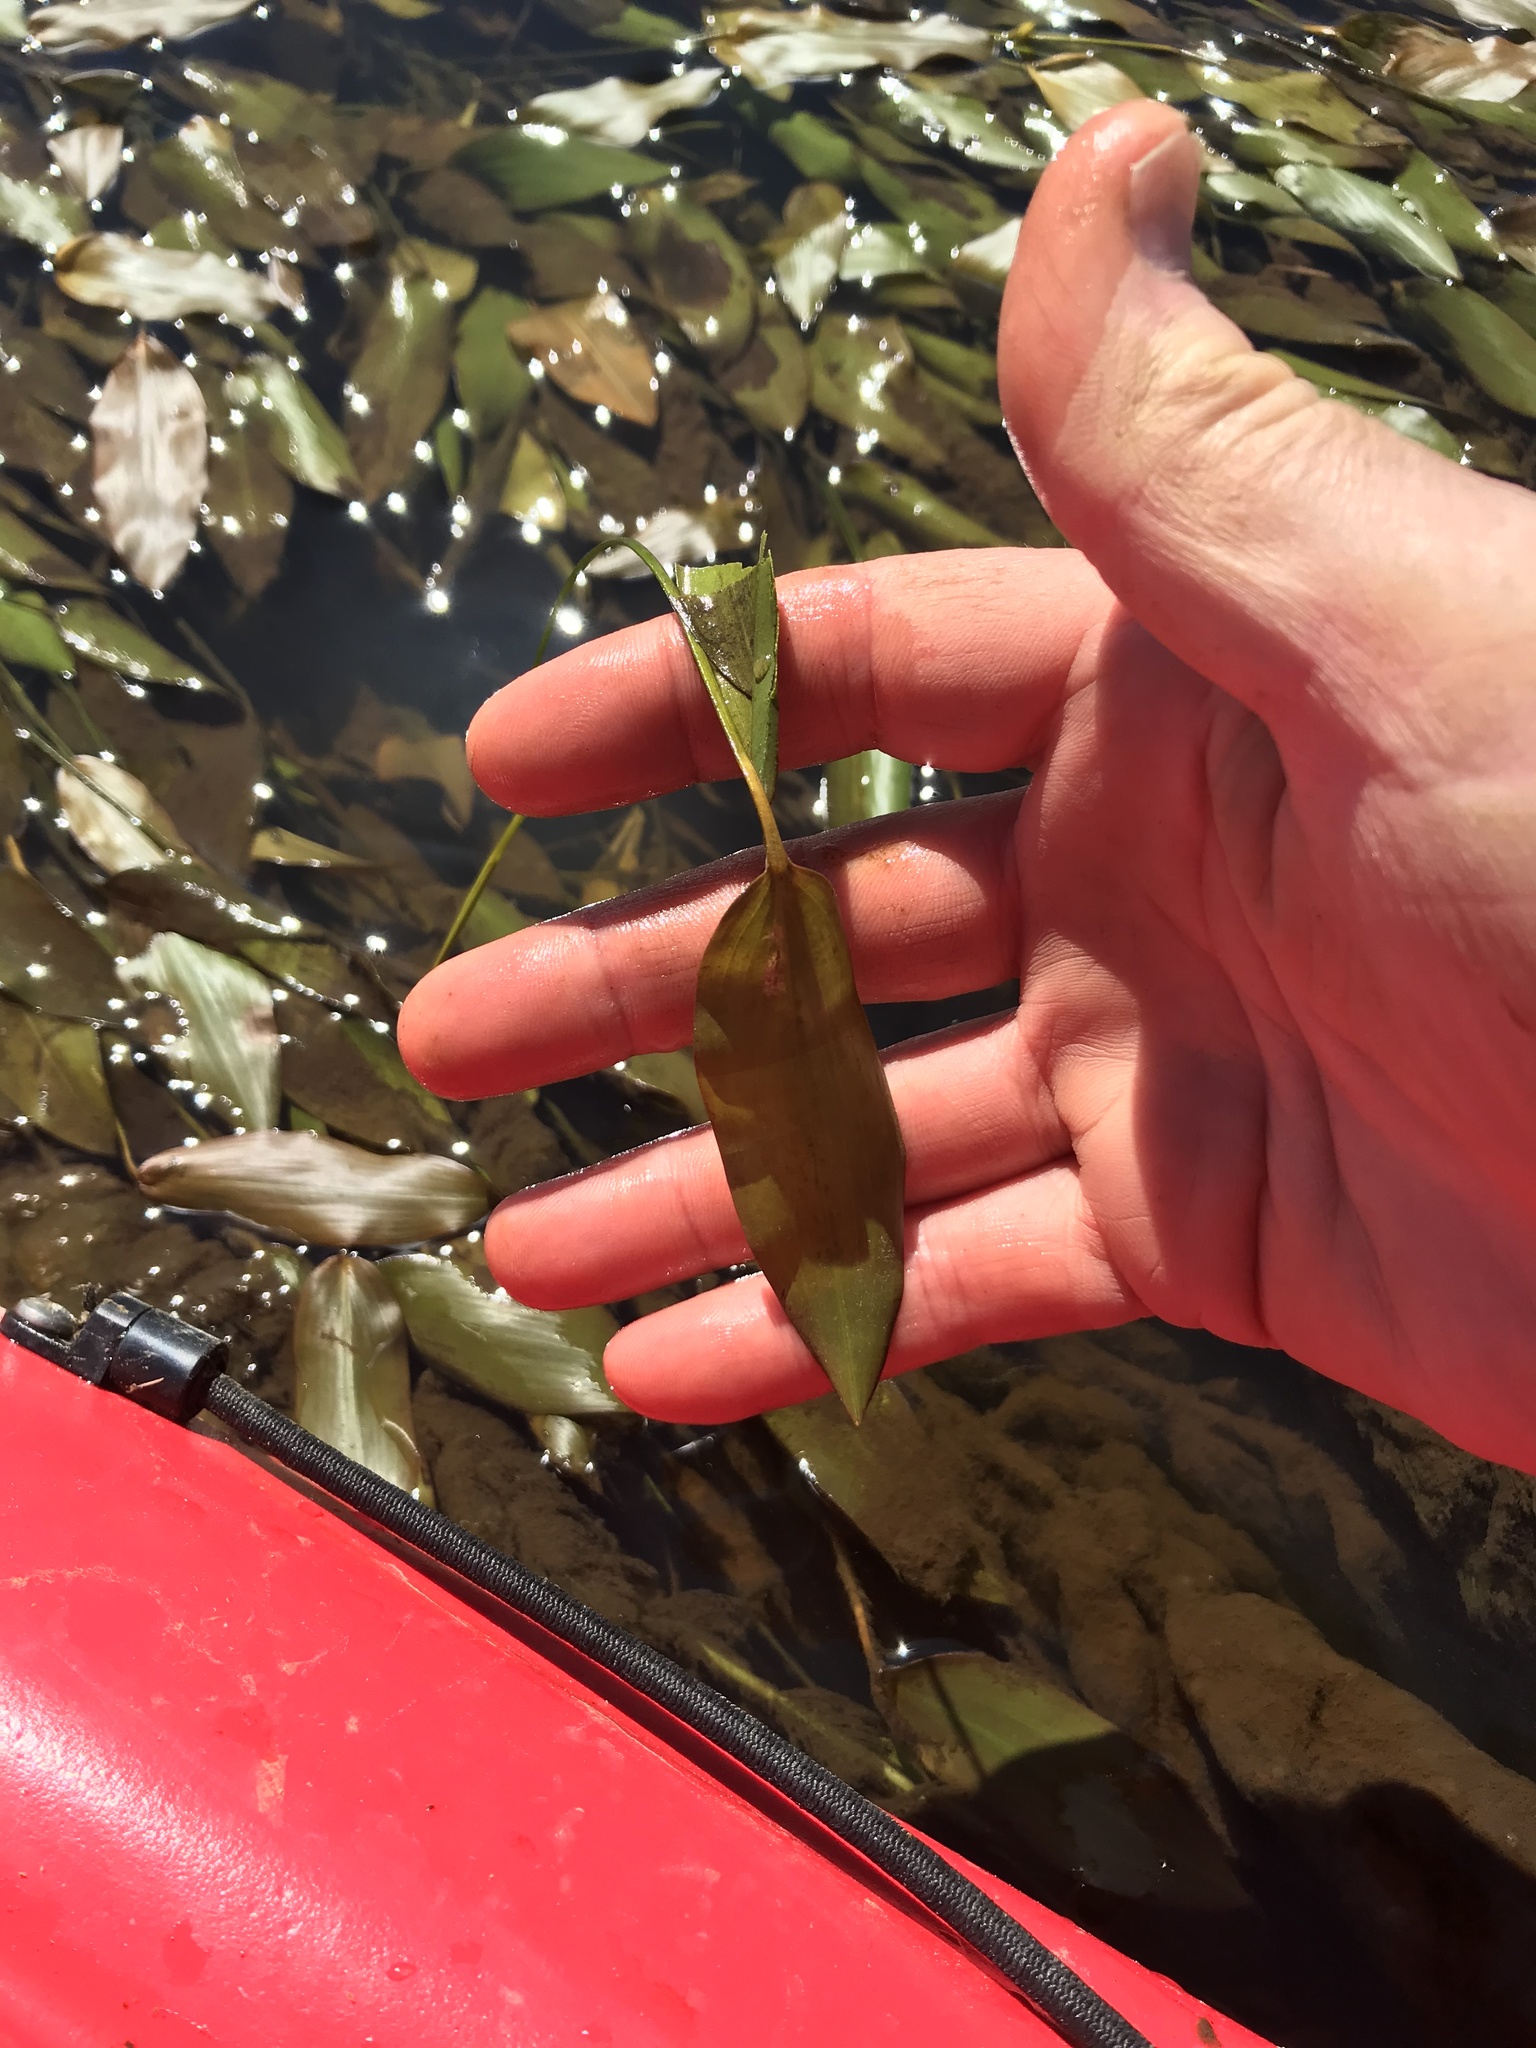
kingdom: Plantae
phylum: Tracheophyta
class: Magnoliopsida
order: Caryophyllales
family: Polygonaceae
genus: Persicaria
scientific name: Persicaria amphibia
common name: Amphibious bistort
